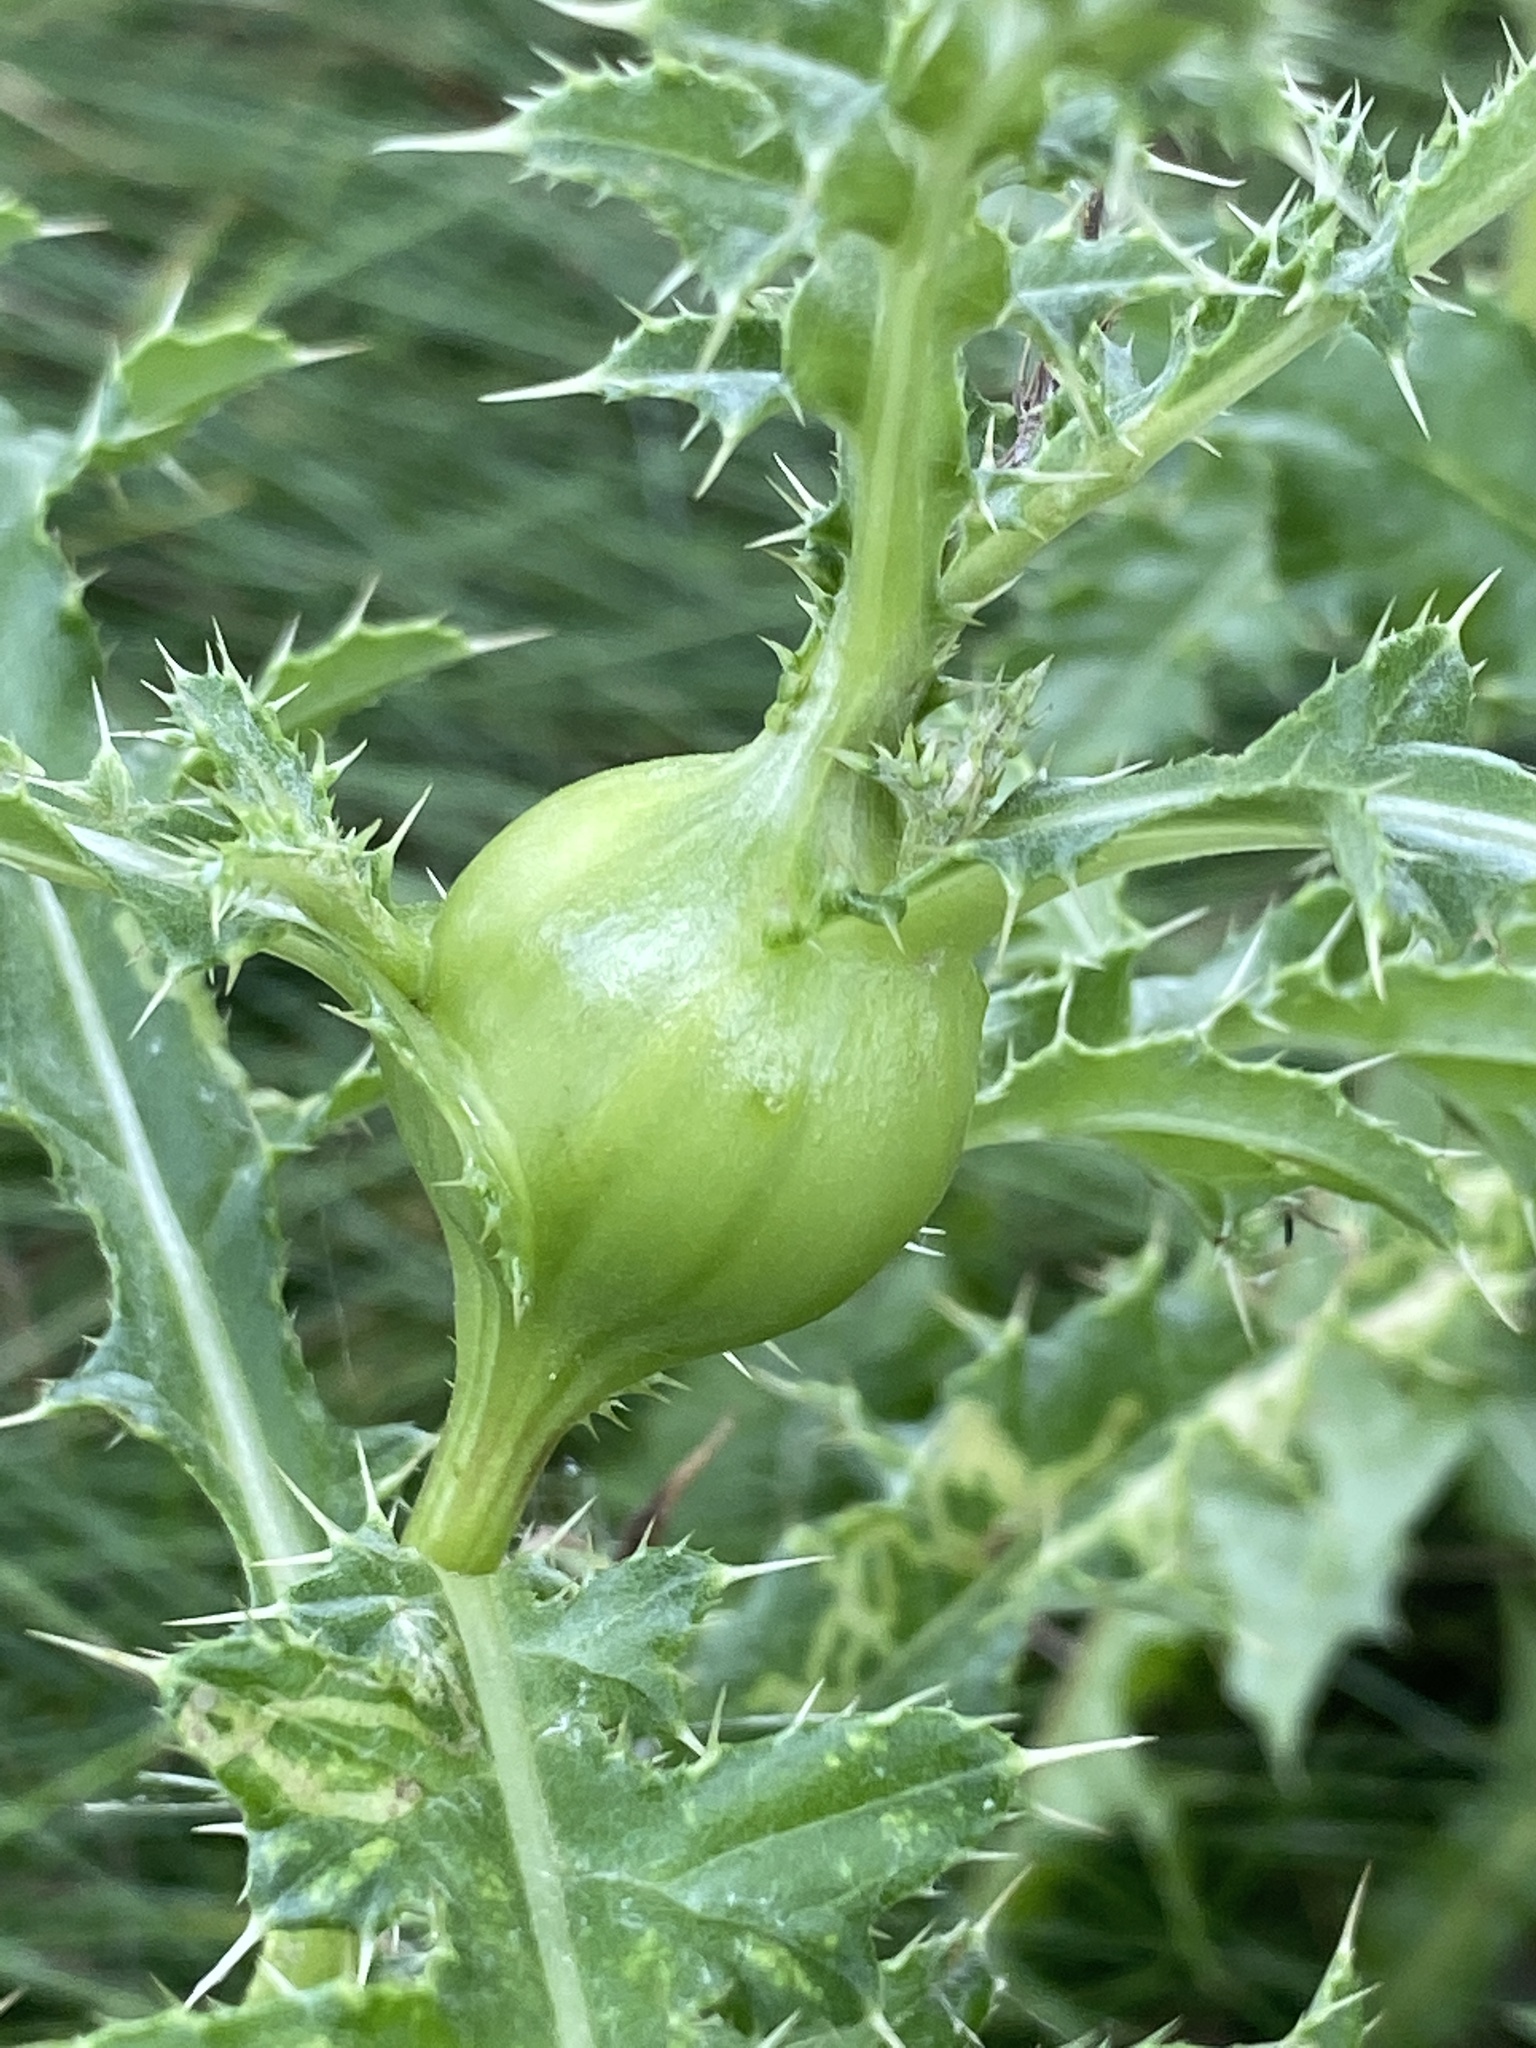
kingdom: Animalia
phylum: Arthropoda
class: Insecta
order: Diptera
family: Tephritidae
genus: Urophora
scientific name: Urophora cardui
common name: Fruit fly
